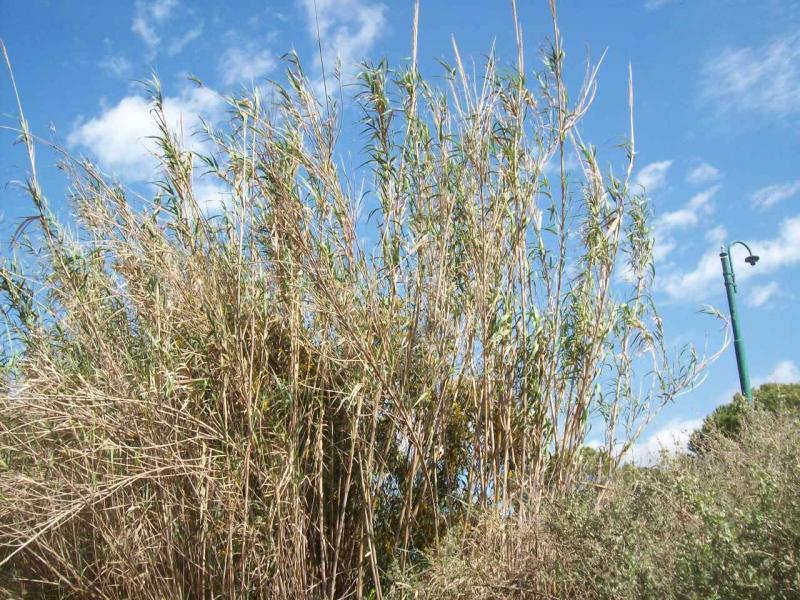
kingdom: Plantae
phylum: Tracheophyta
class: Liliopsida
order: Poales
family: Poaceae
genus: Arundo
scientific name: Arundo donax
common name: Giant reed
